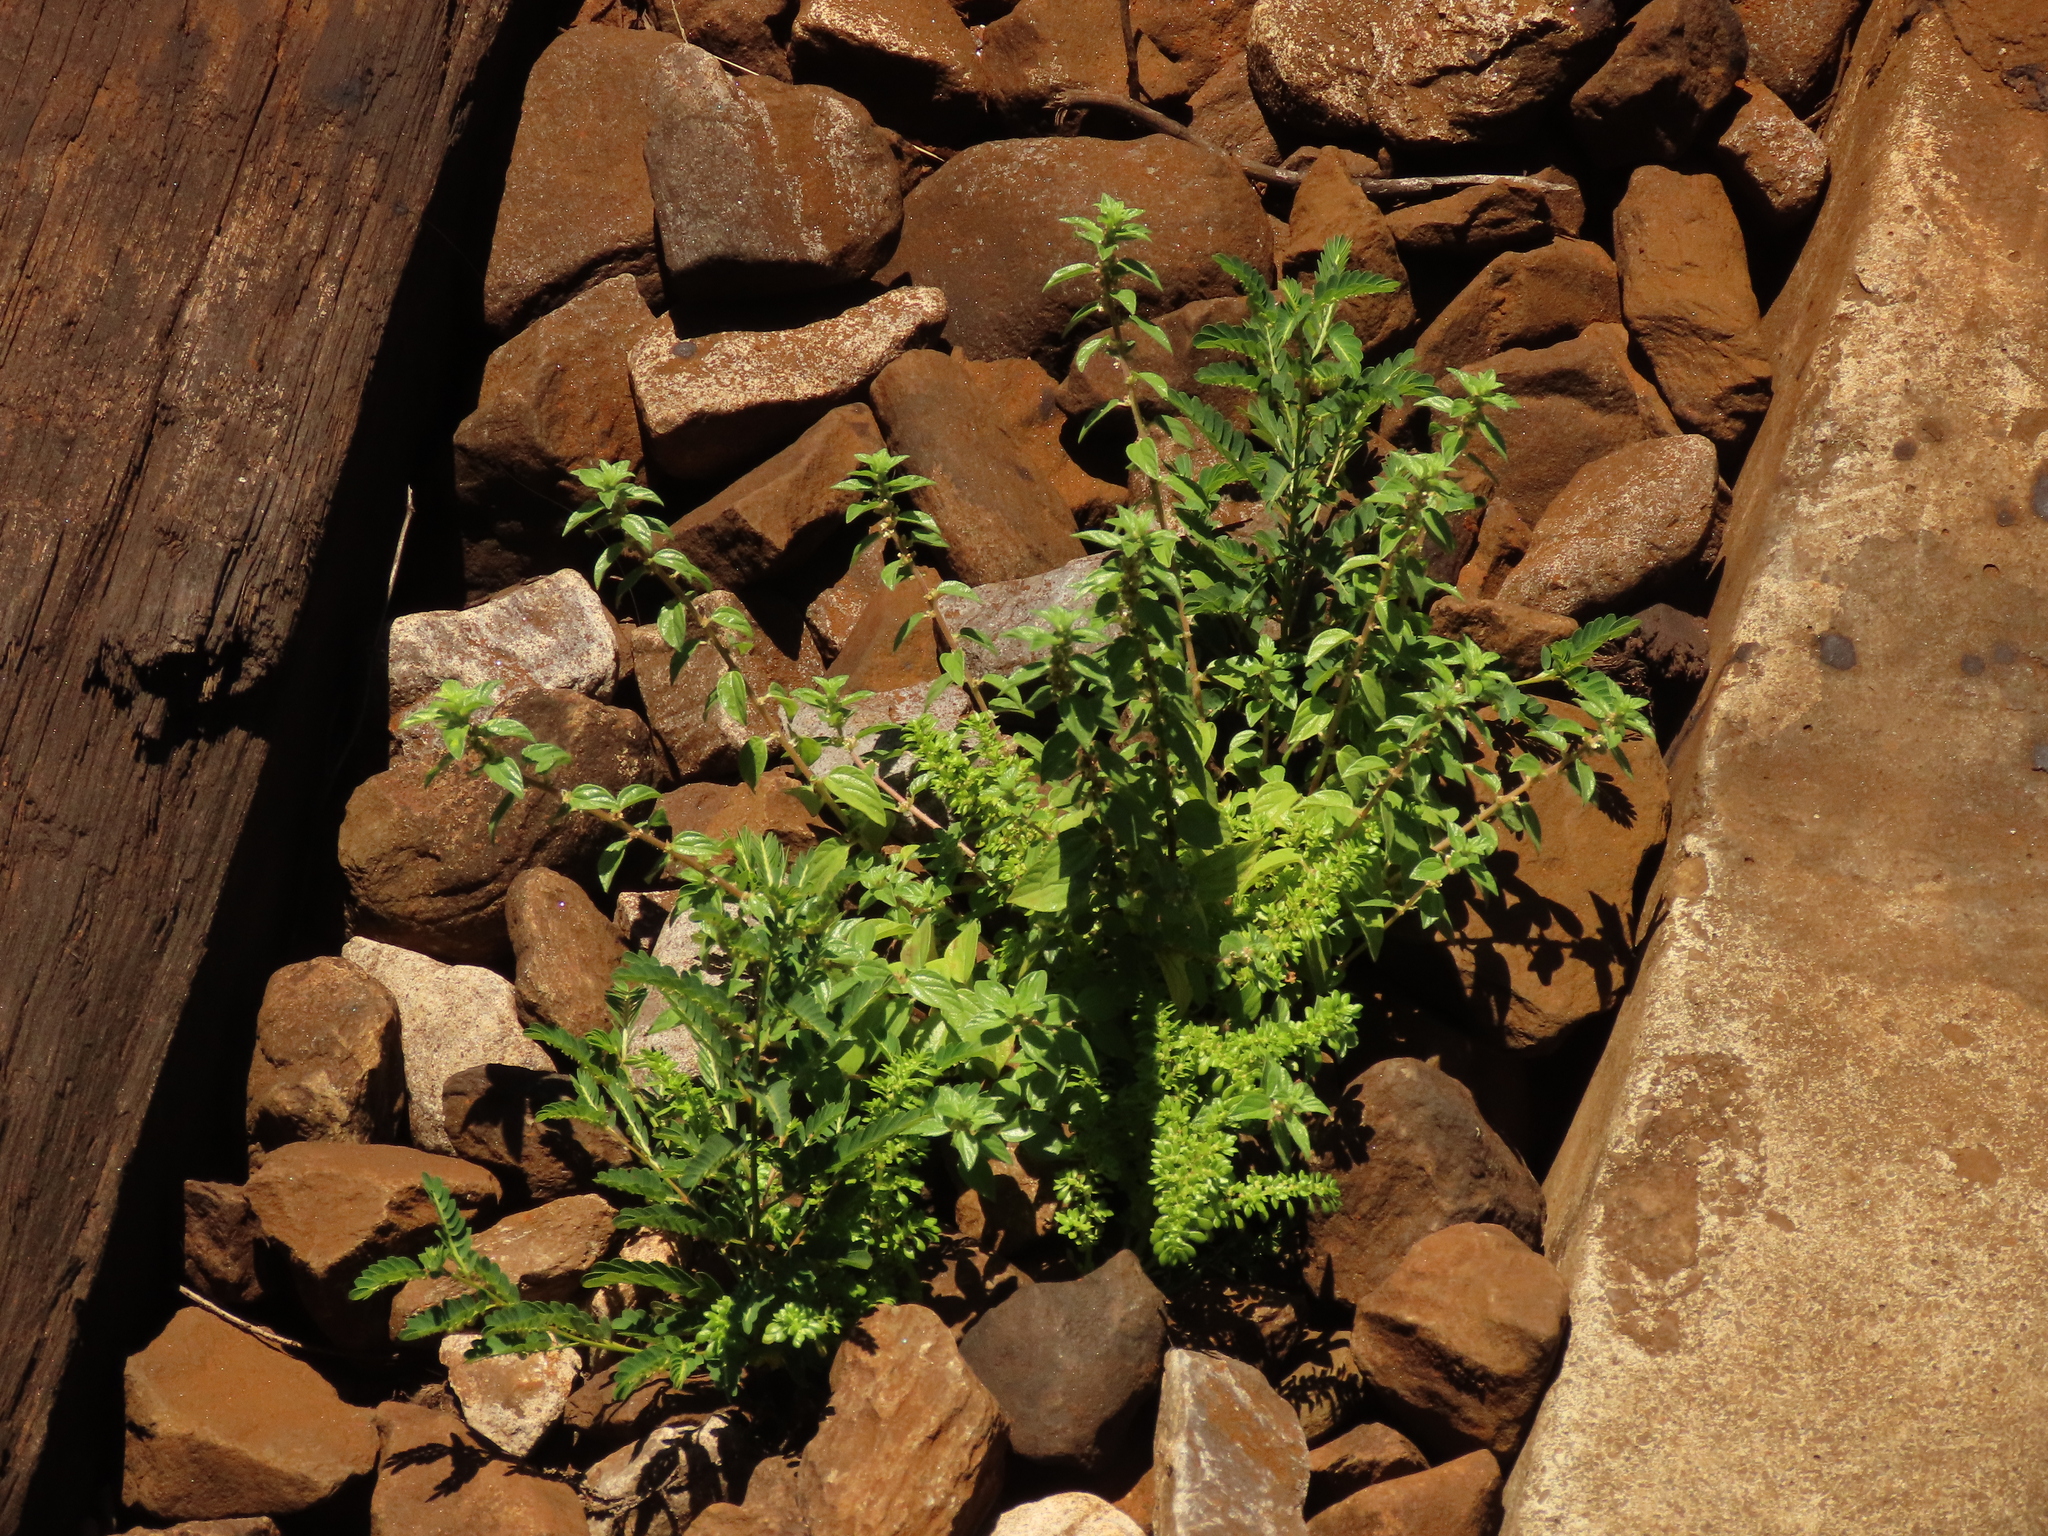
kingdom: Plantae
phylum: Tracheophyta
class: Magnoliopsida
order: Rosales
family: Urticaceae
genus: Pouzolzia
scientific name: Pouzolzia zeylanica
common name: Graceful pouzolzsbush
